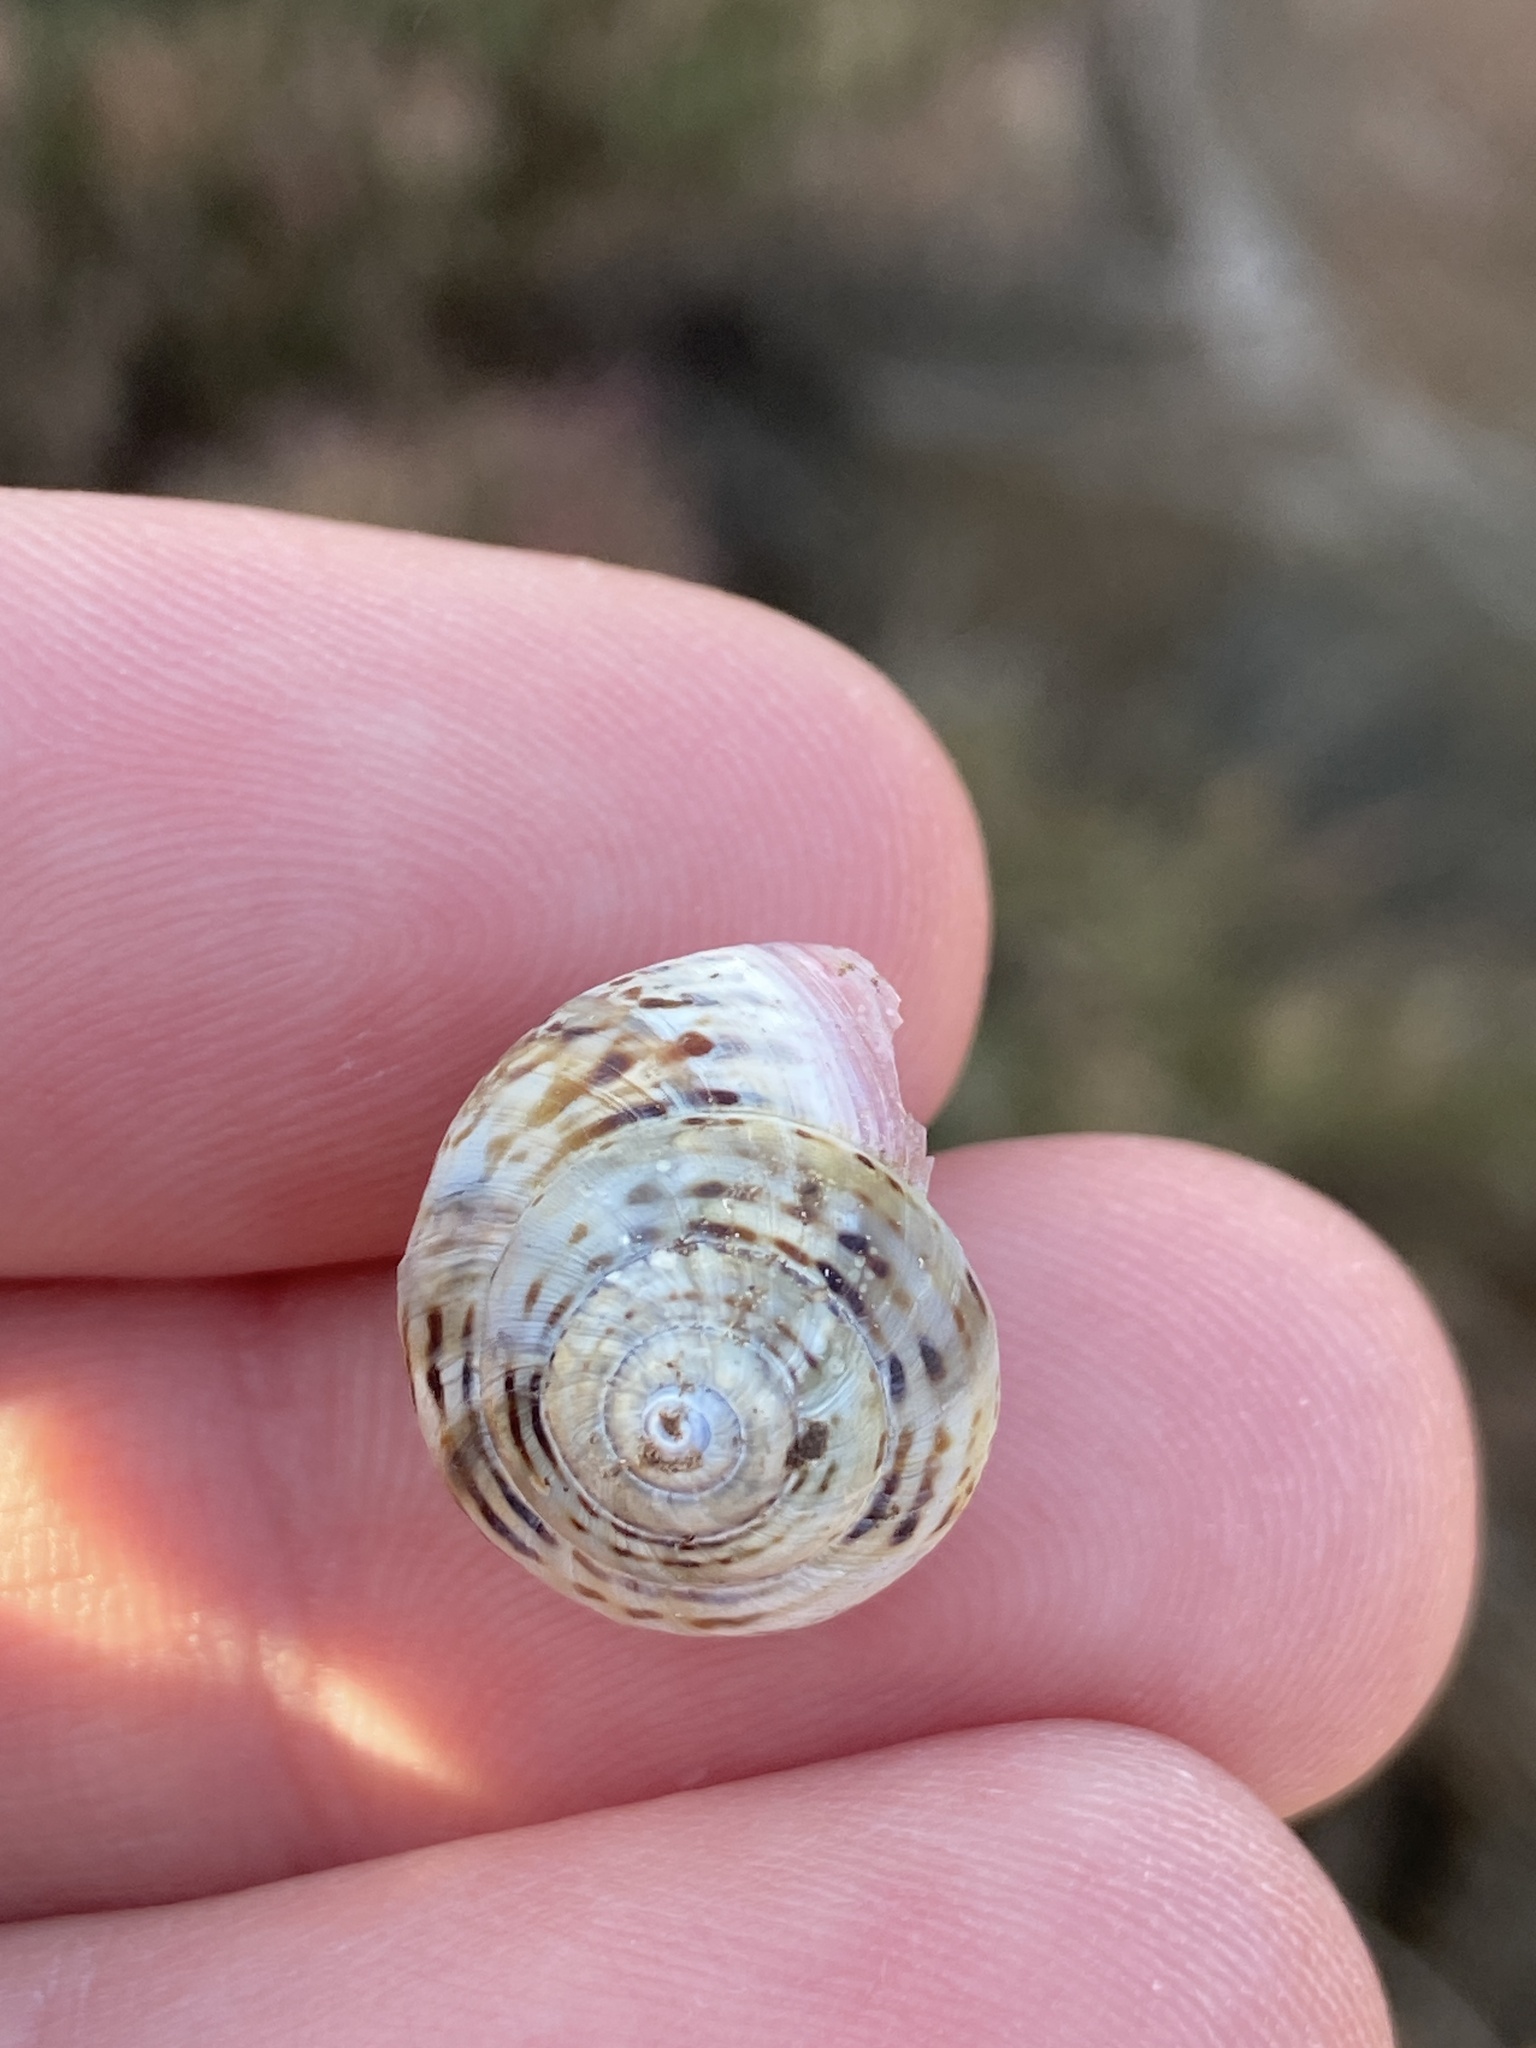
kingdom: Animalia
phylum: Mollusca
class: Gastropoda
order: Stylommatophora
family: Helicidae
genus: Theba
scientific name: Theba pisana
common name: White snail
